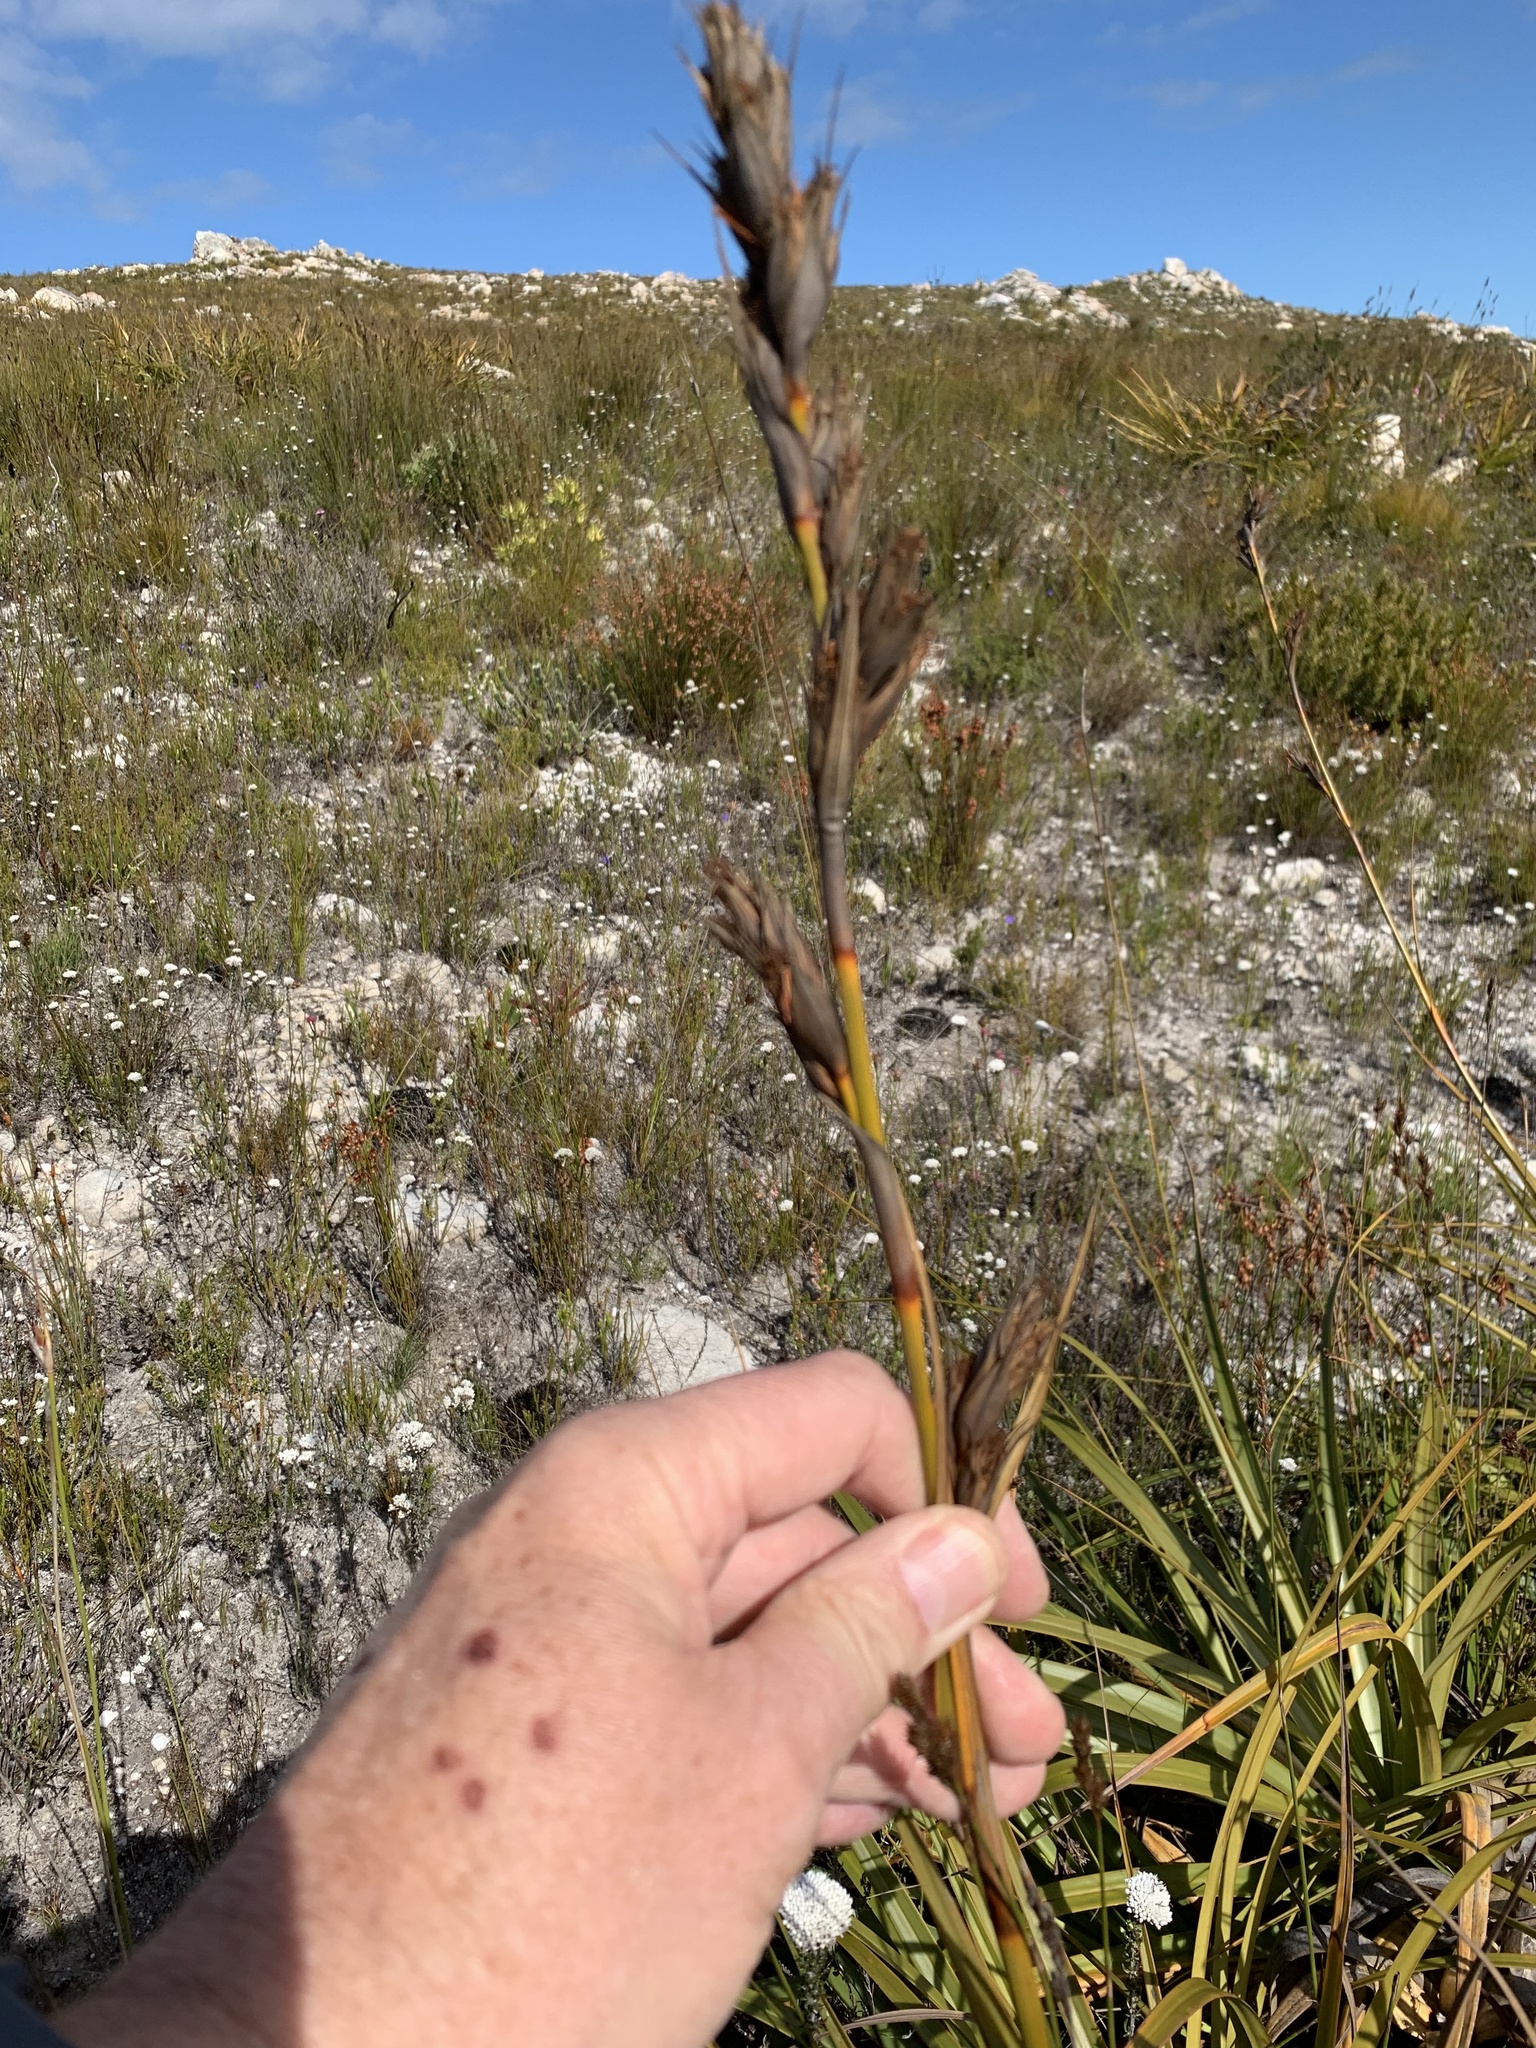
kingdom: Plantae
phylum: Tracheophyta
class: Liliopsida
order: Poales
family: Cyperaceae
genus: Tetraria
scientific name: Tetraria thermalis
